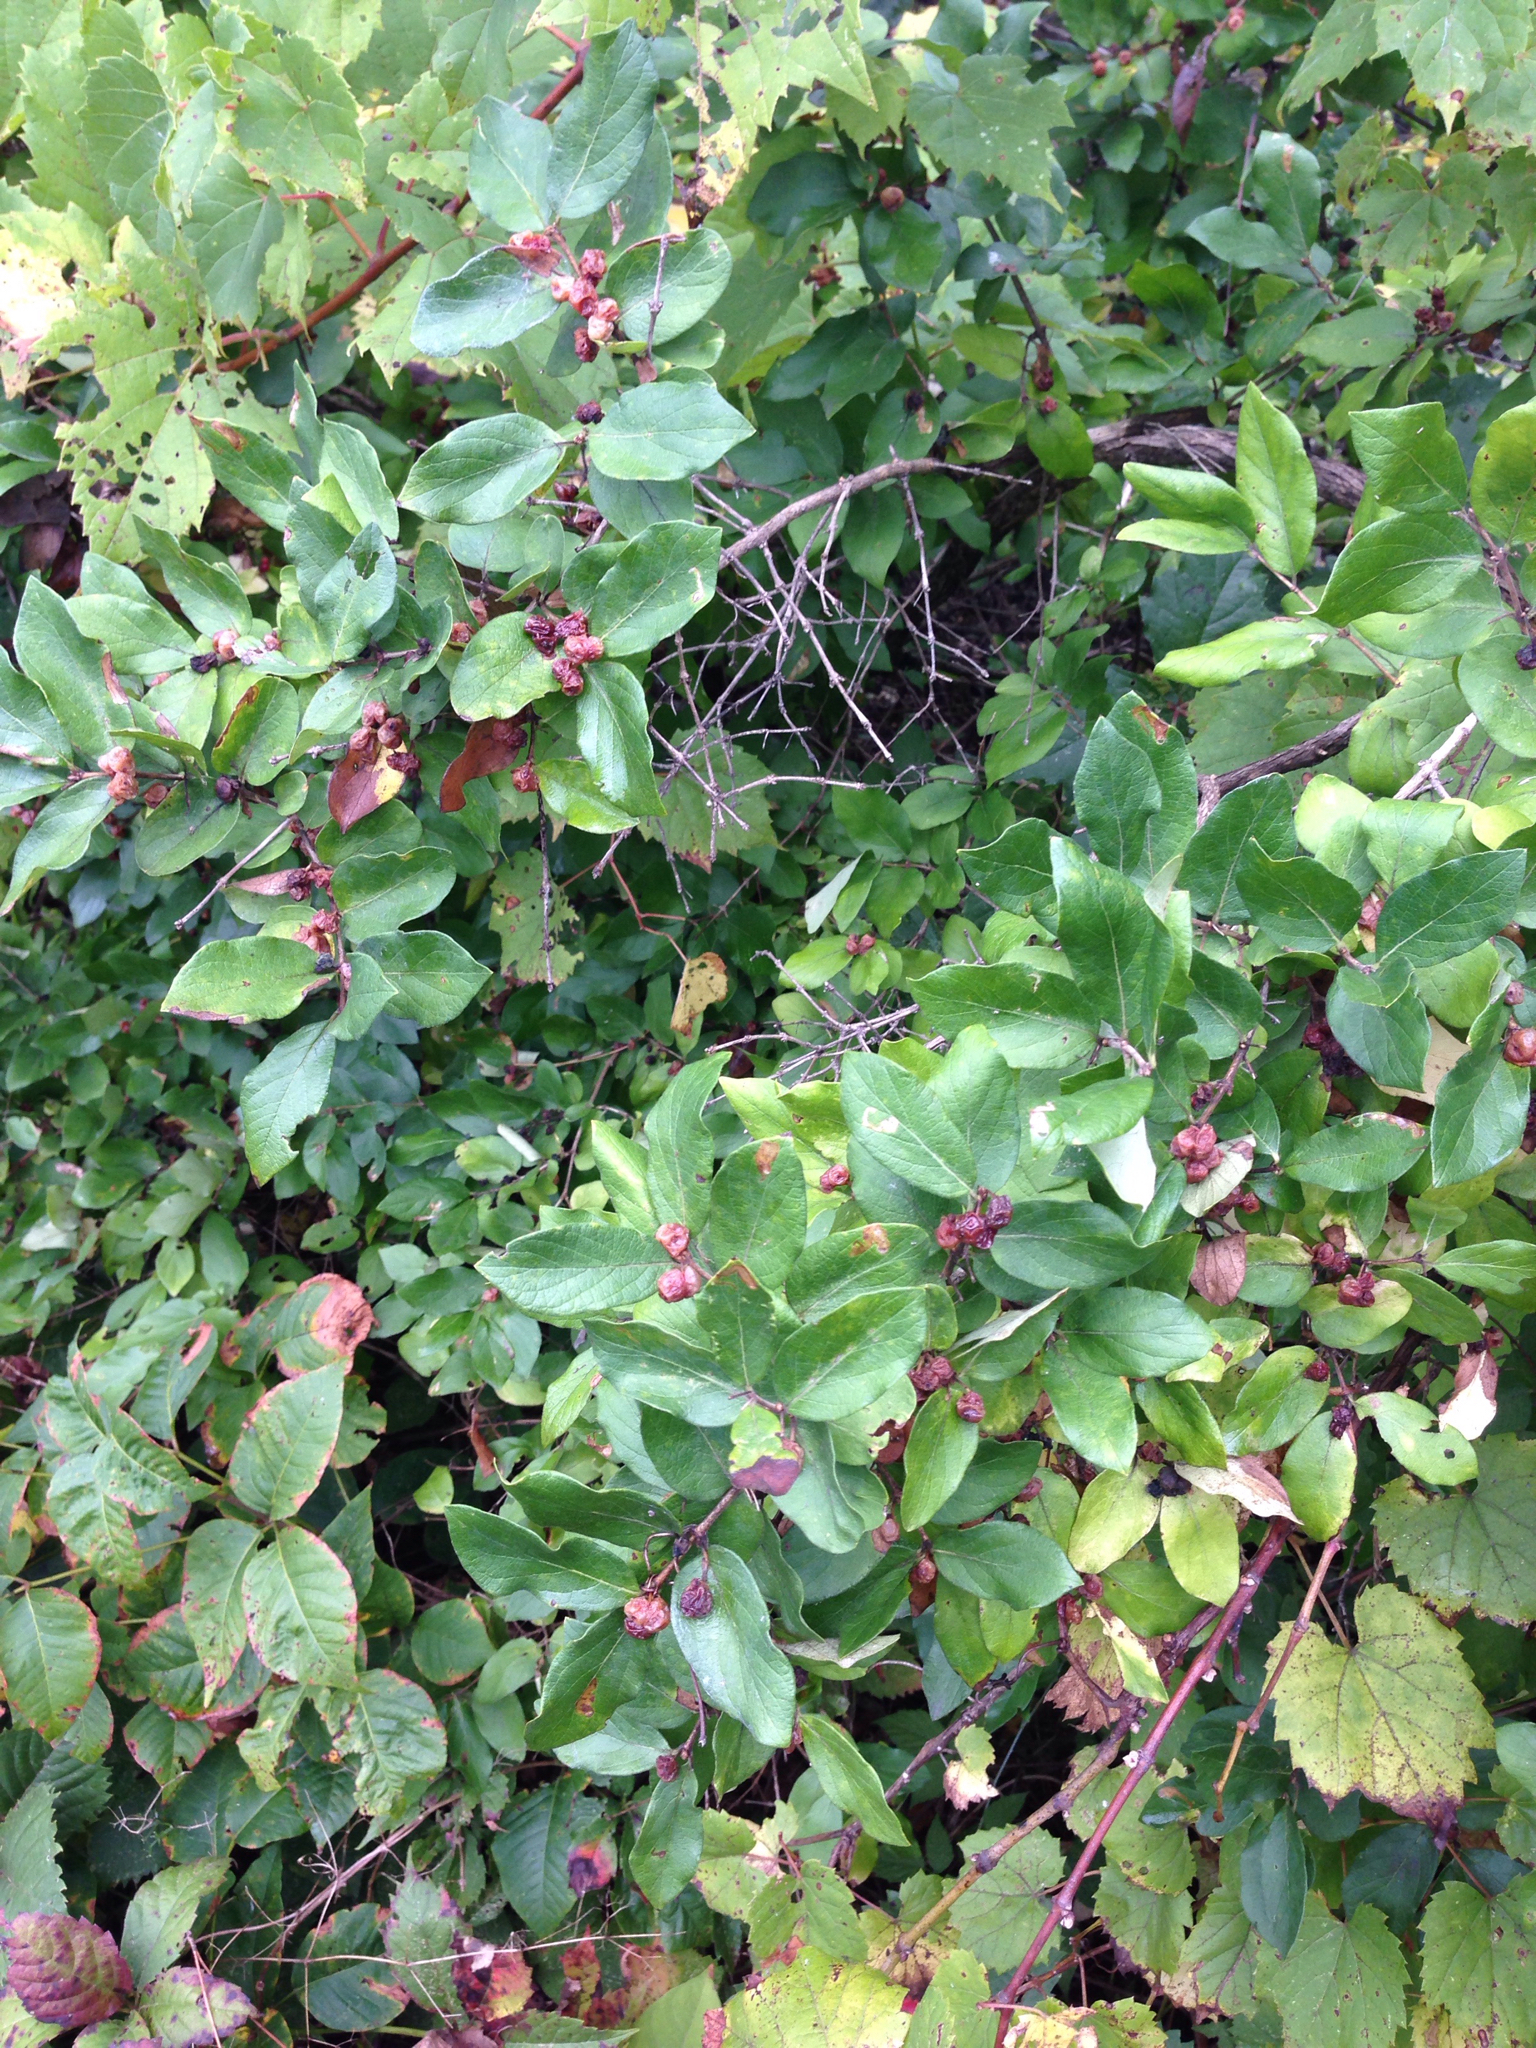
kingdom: Plantae
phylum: Tracheophyta
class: Magnoliopsida
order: Dipsacales
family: Caprifoliaceae
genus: Lonicera
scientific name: Lonicera morrowii
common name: Morrow's honeysuckle
